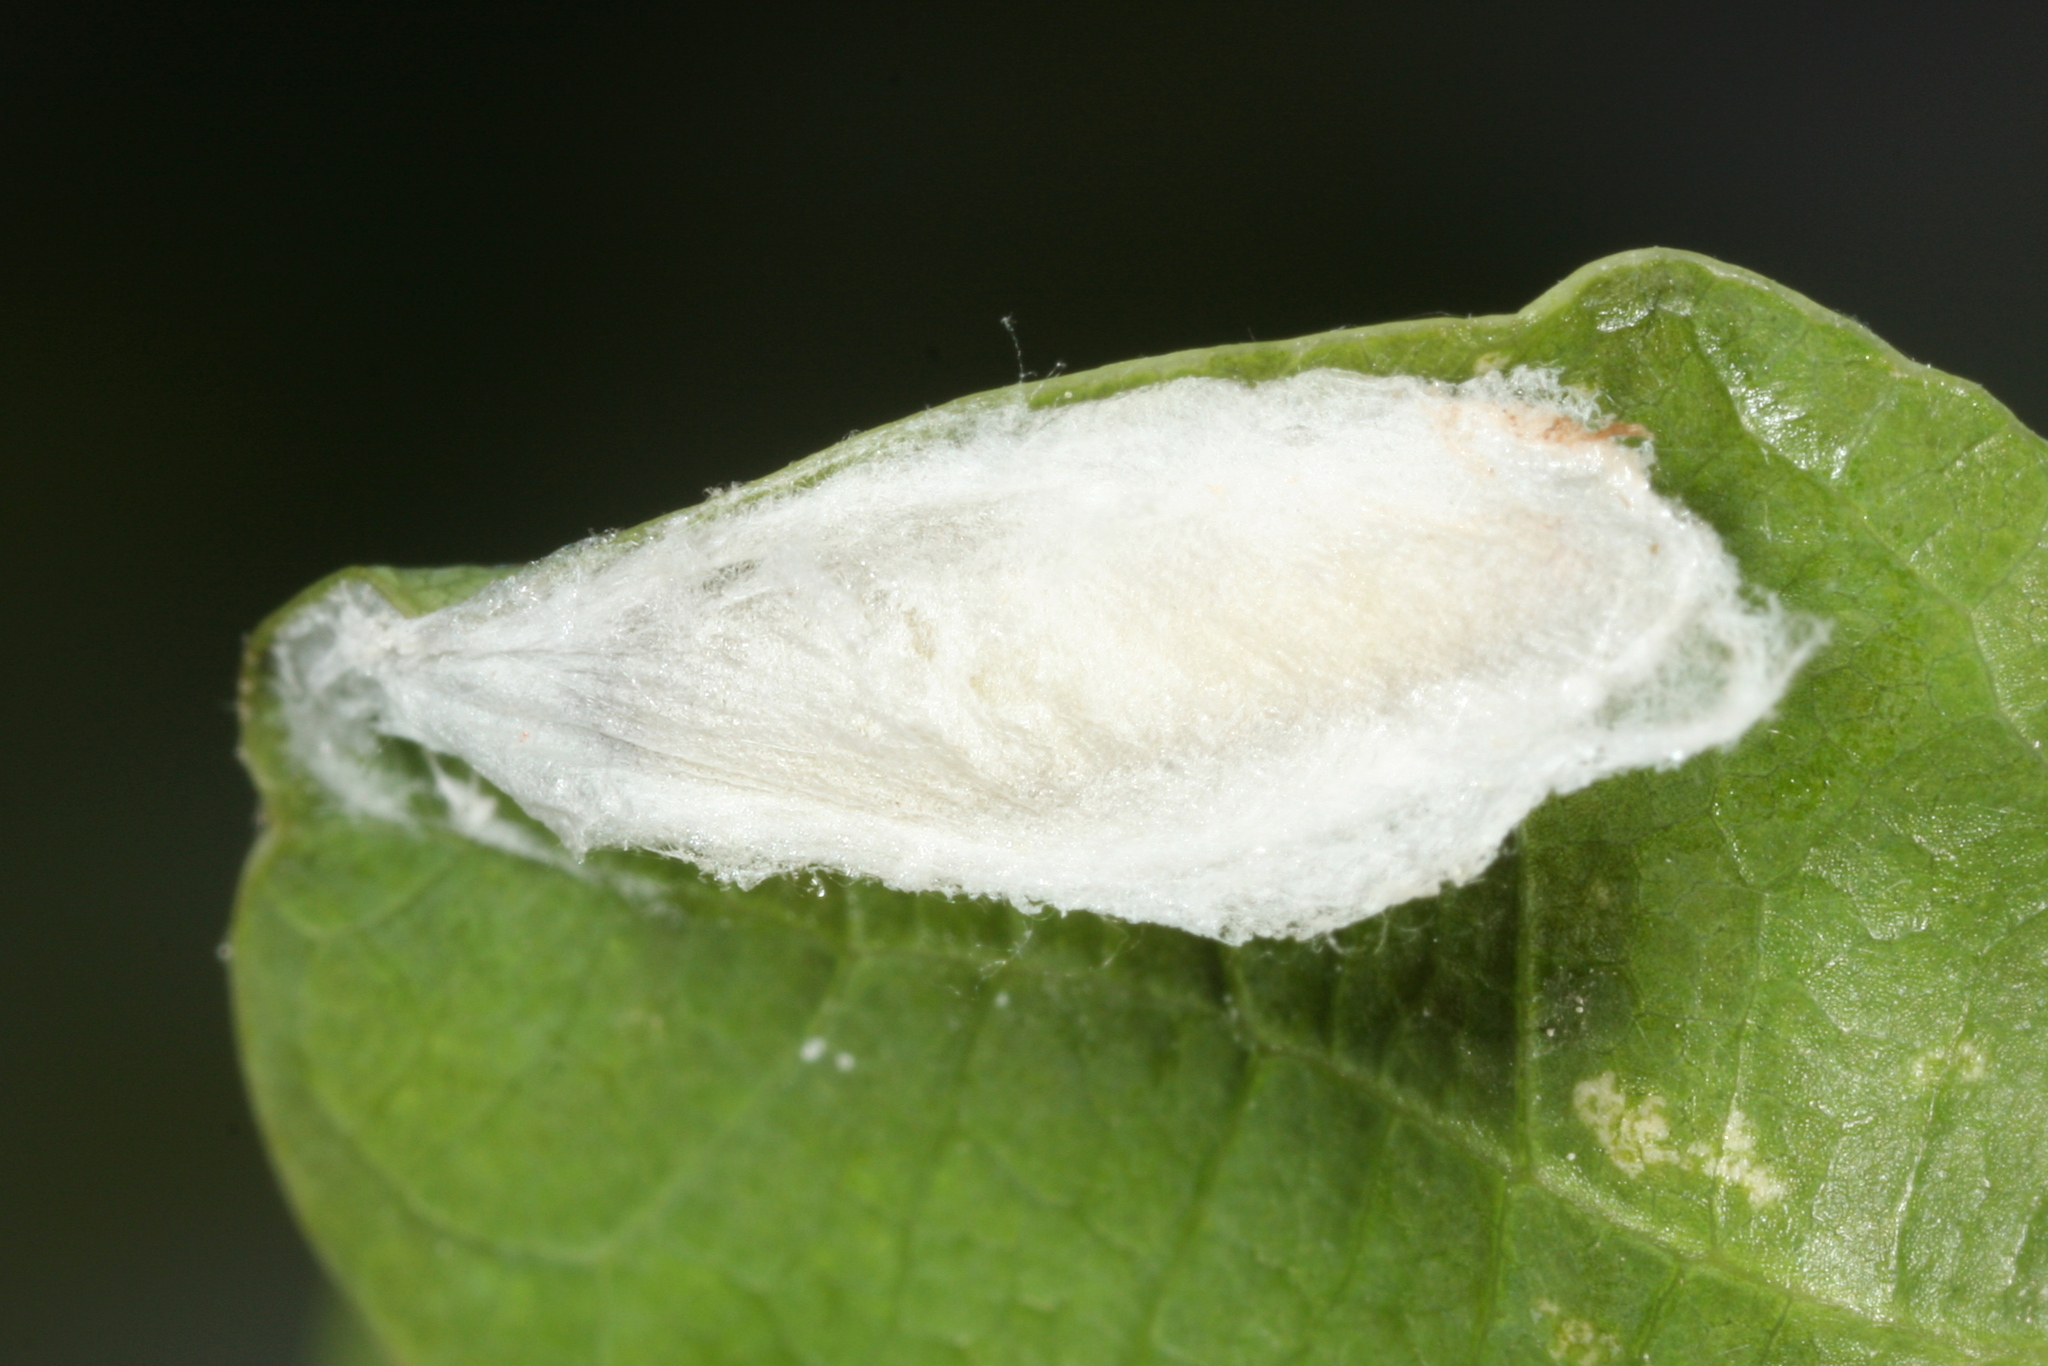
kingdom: Animalia
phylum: Arthropoda
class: Insecta
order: Lepidoptera
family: Tortricidae
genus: Gypsonoma
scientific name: Gypsonoma dealbana
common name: Common cloaked shoot
